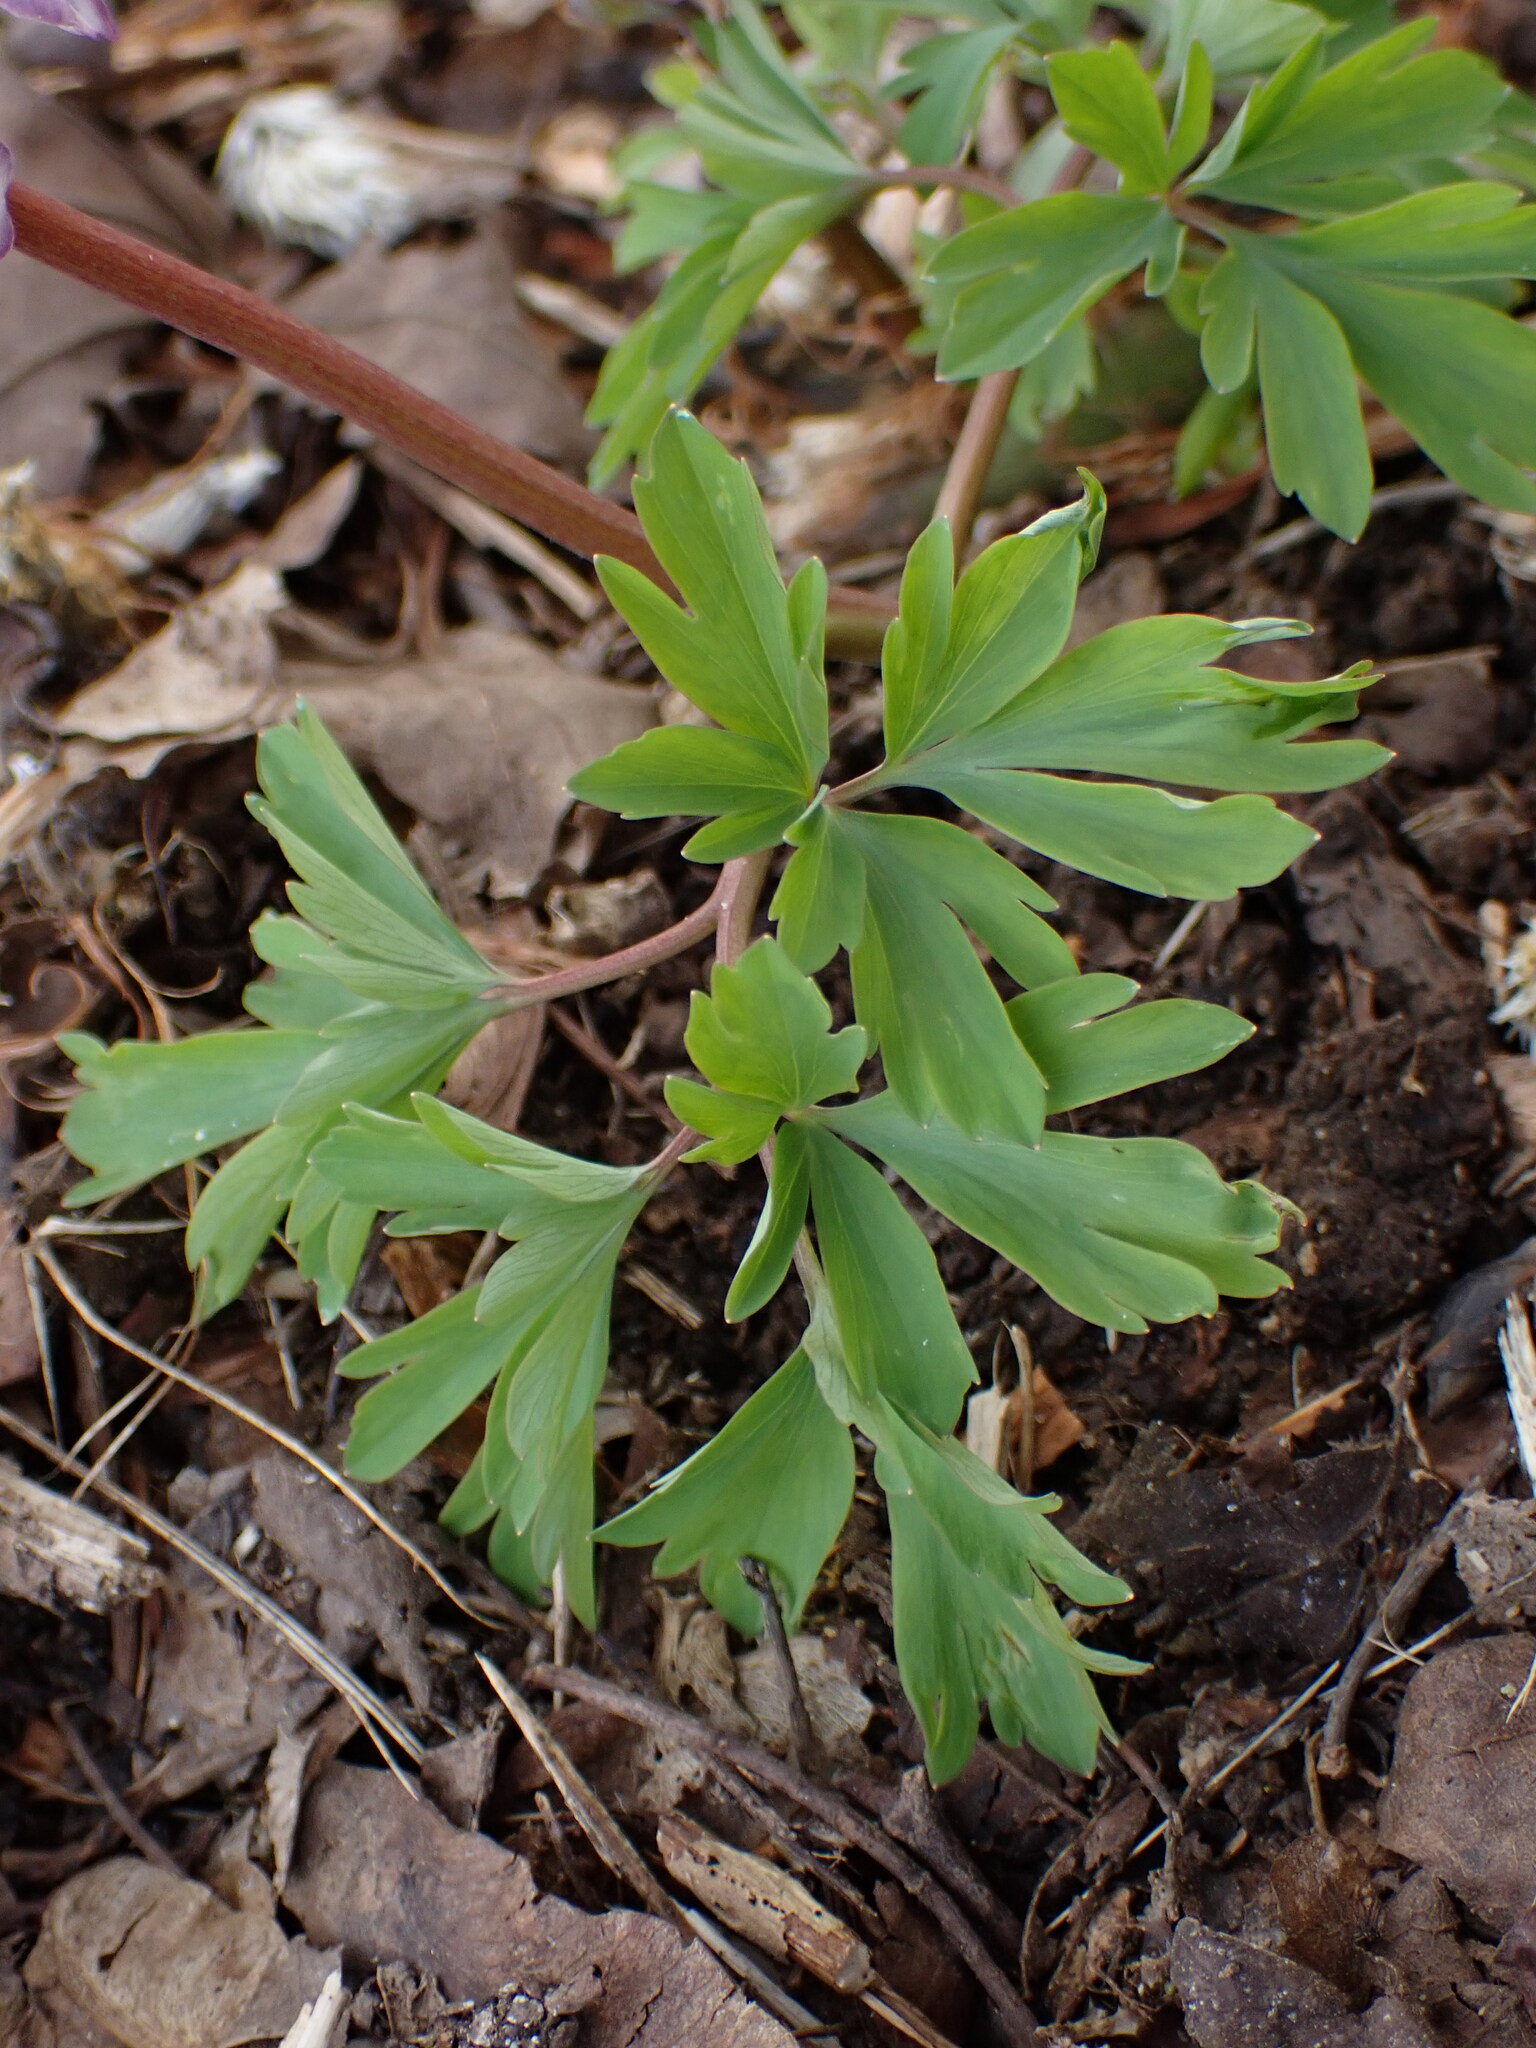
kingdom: Plantae
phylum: Tracheophyta
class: Magnoliopsida
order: Ranunculales
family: Papaveraceae
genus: Corydalis
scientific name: Corydalis cava
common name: Hollowroot
